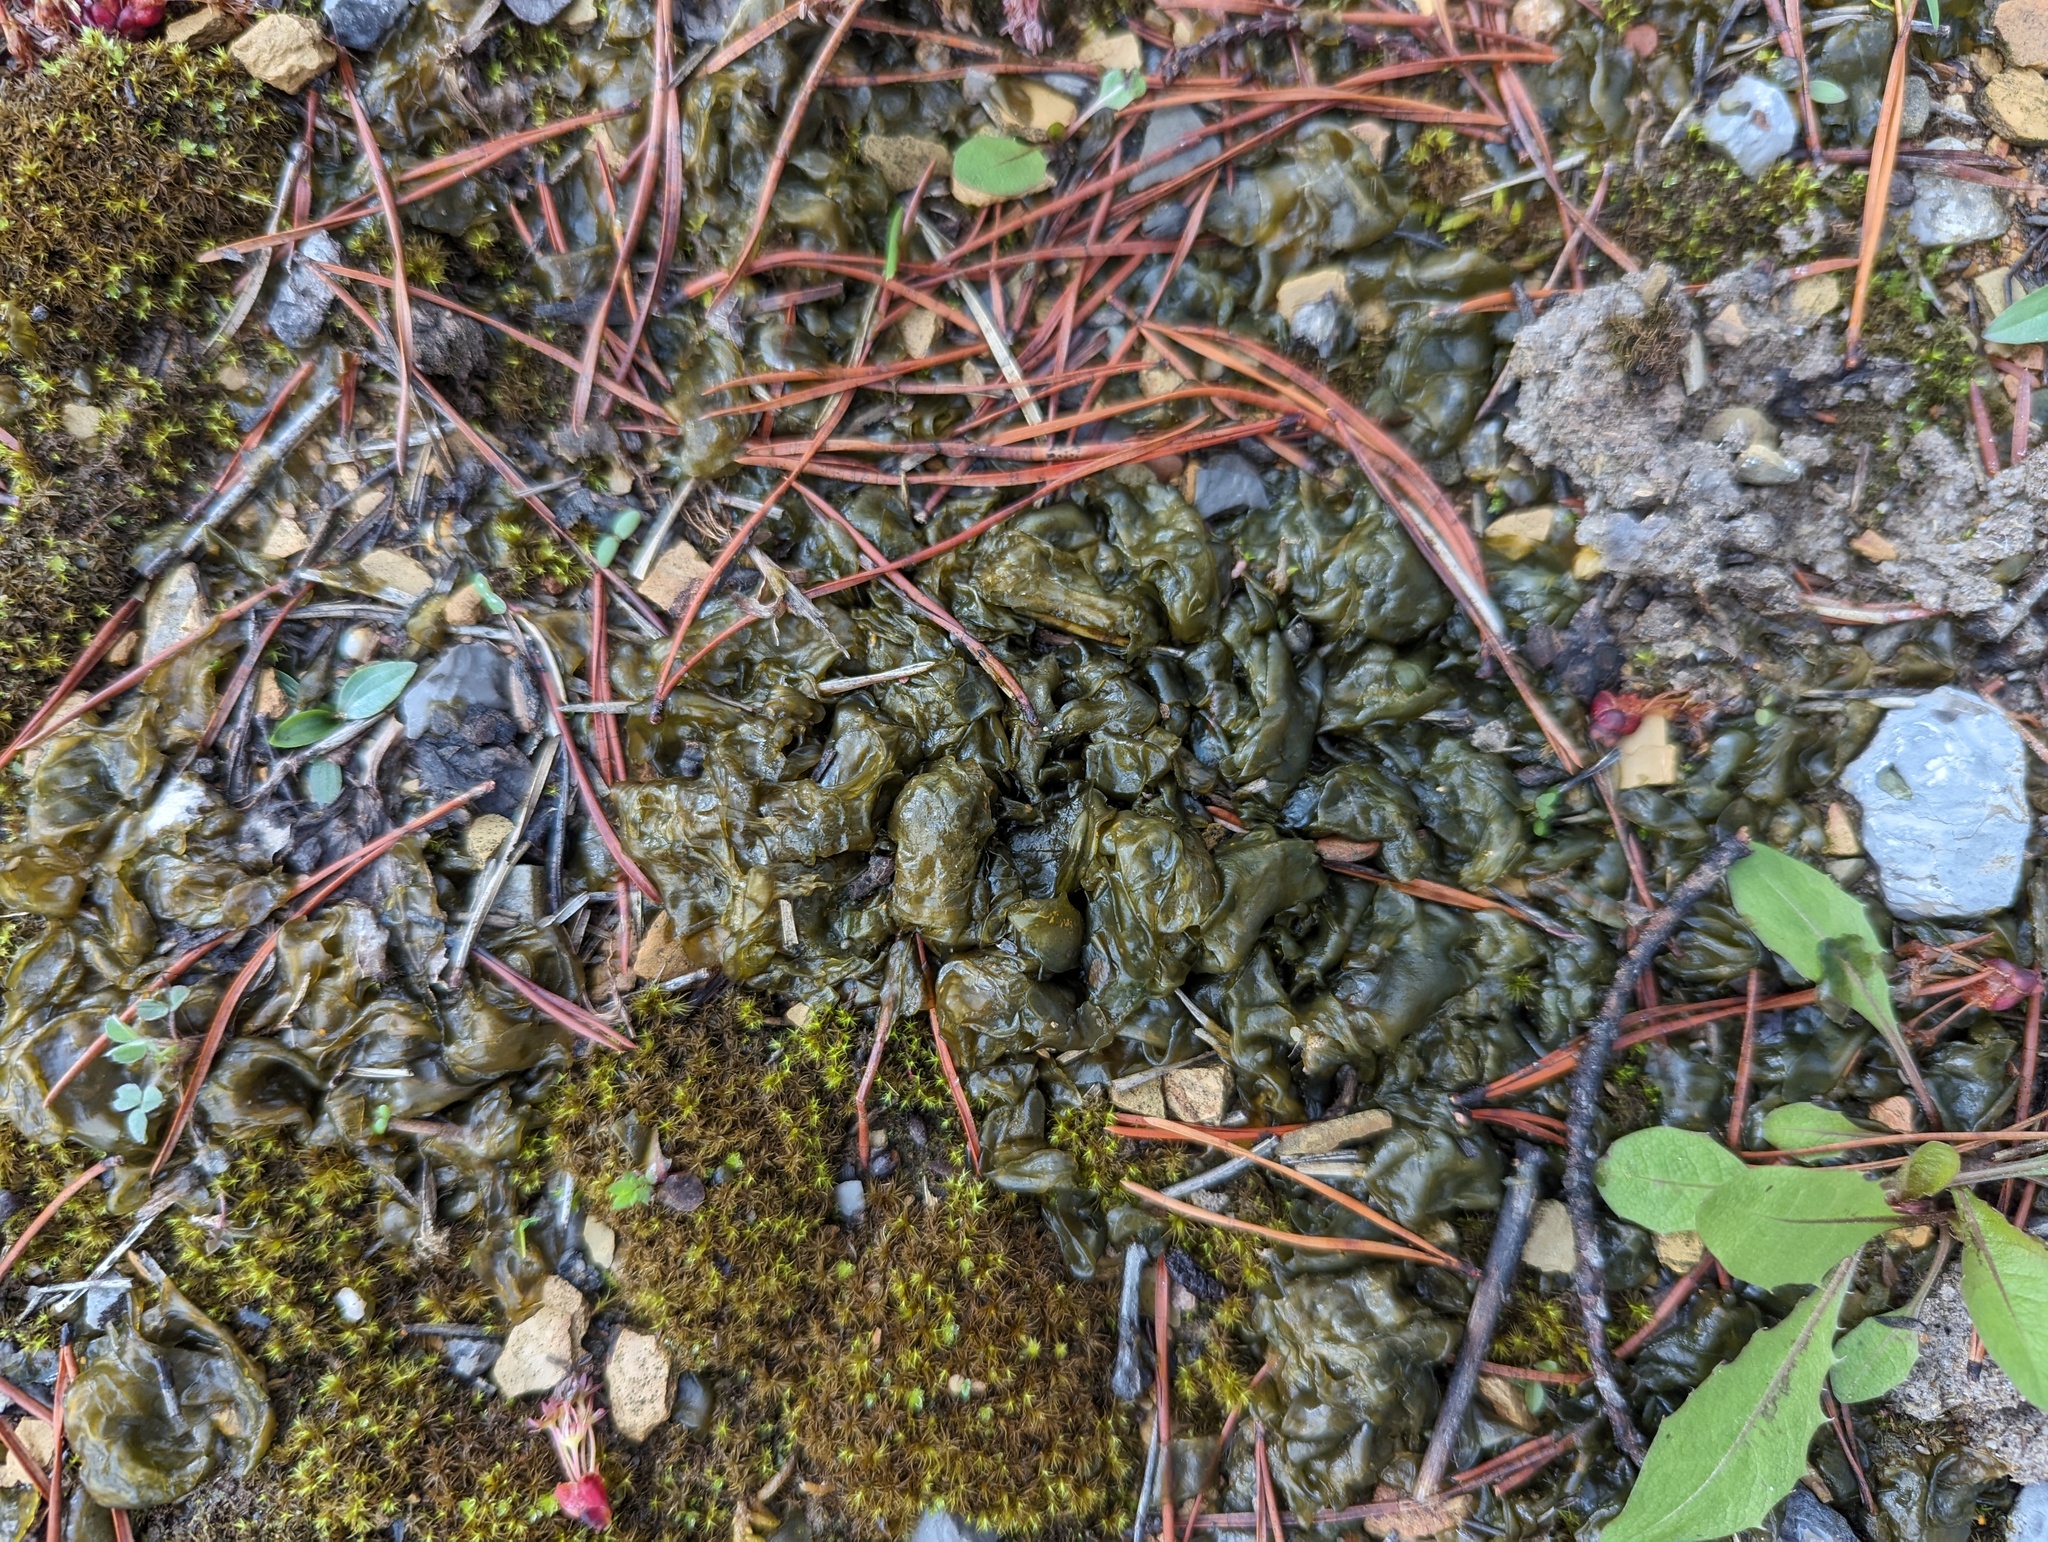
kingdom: Bacteria
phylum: Cyanobacteria
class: Cyanobacteriia
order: Cyanobacteriales
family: Nostocaceae
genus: Nostoc
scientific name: Nostoc commune
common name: Star jelly
